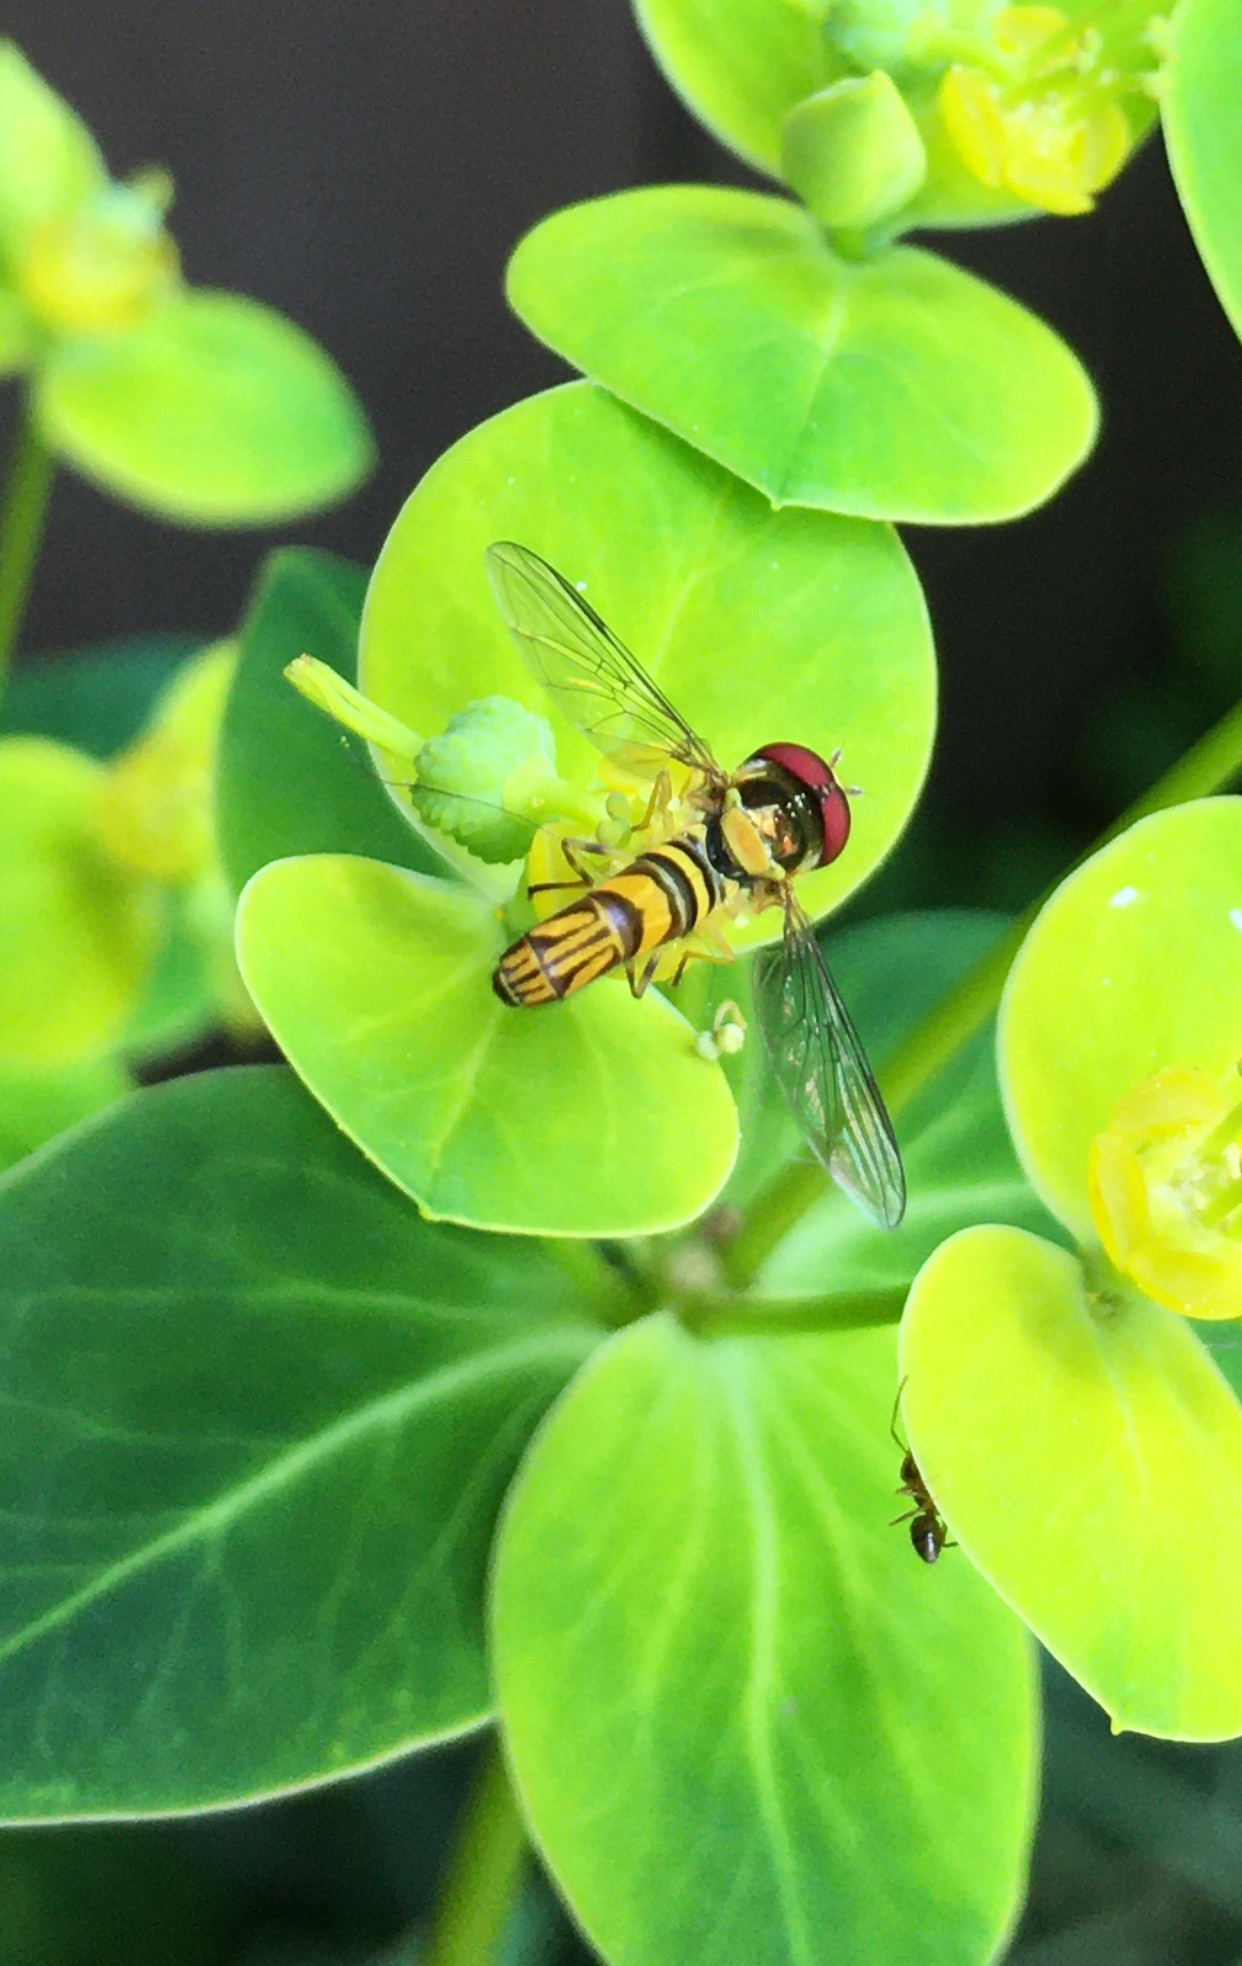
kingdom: Animalia
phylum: Arthropoda
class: Insecta
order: Diptera
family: Syrphidae
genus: Allograpta
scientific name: Allograpta obliqua
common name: Common oblique syrphid
